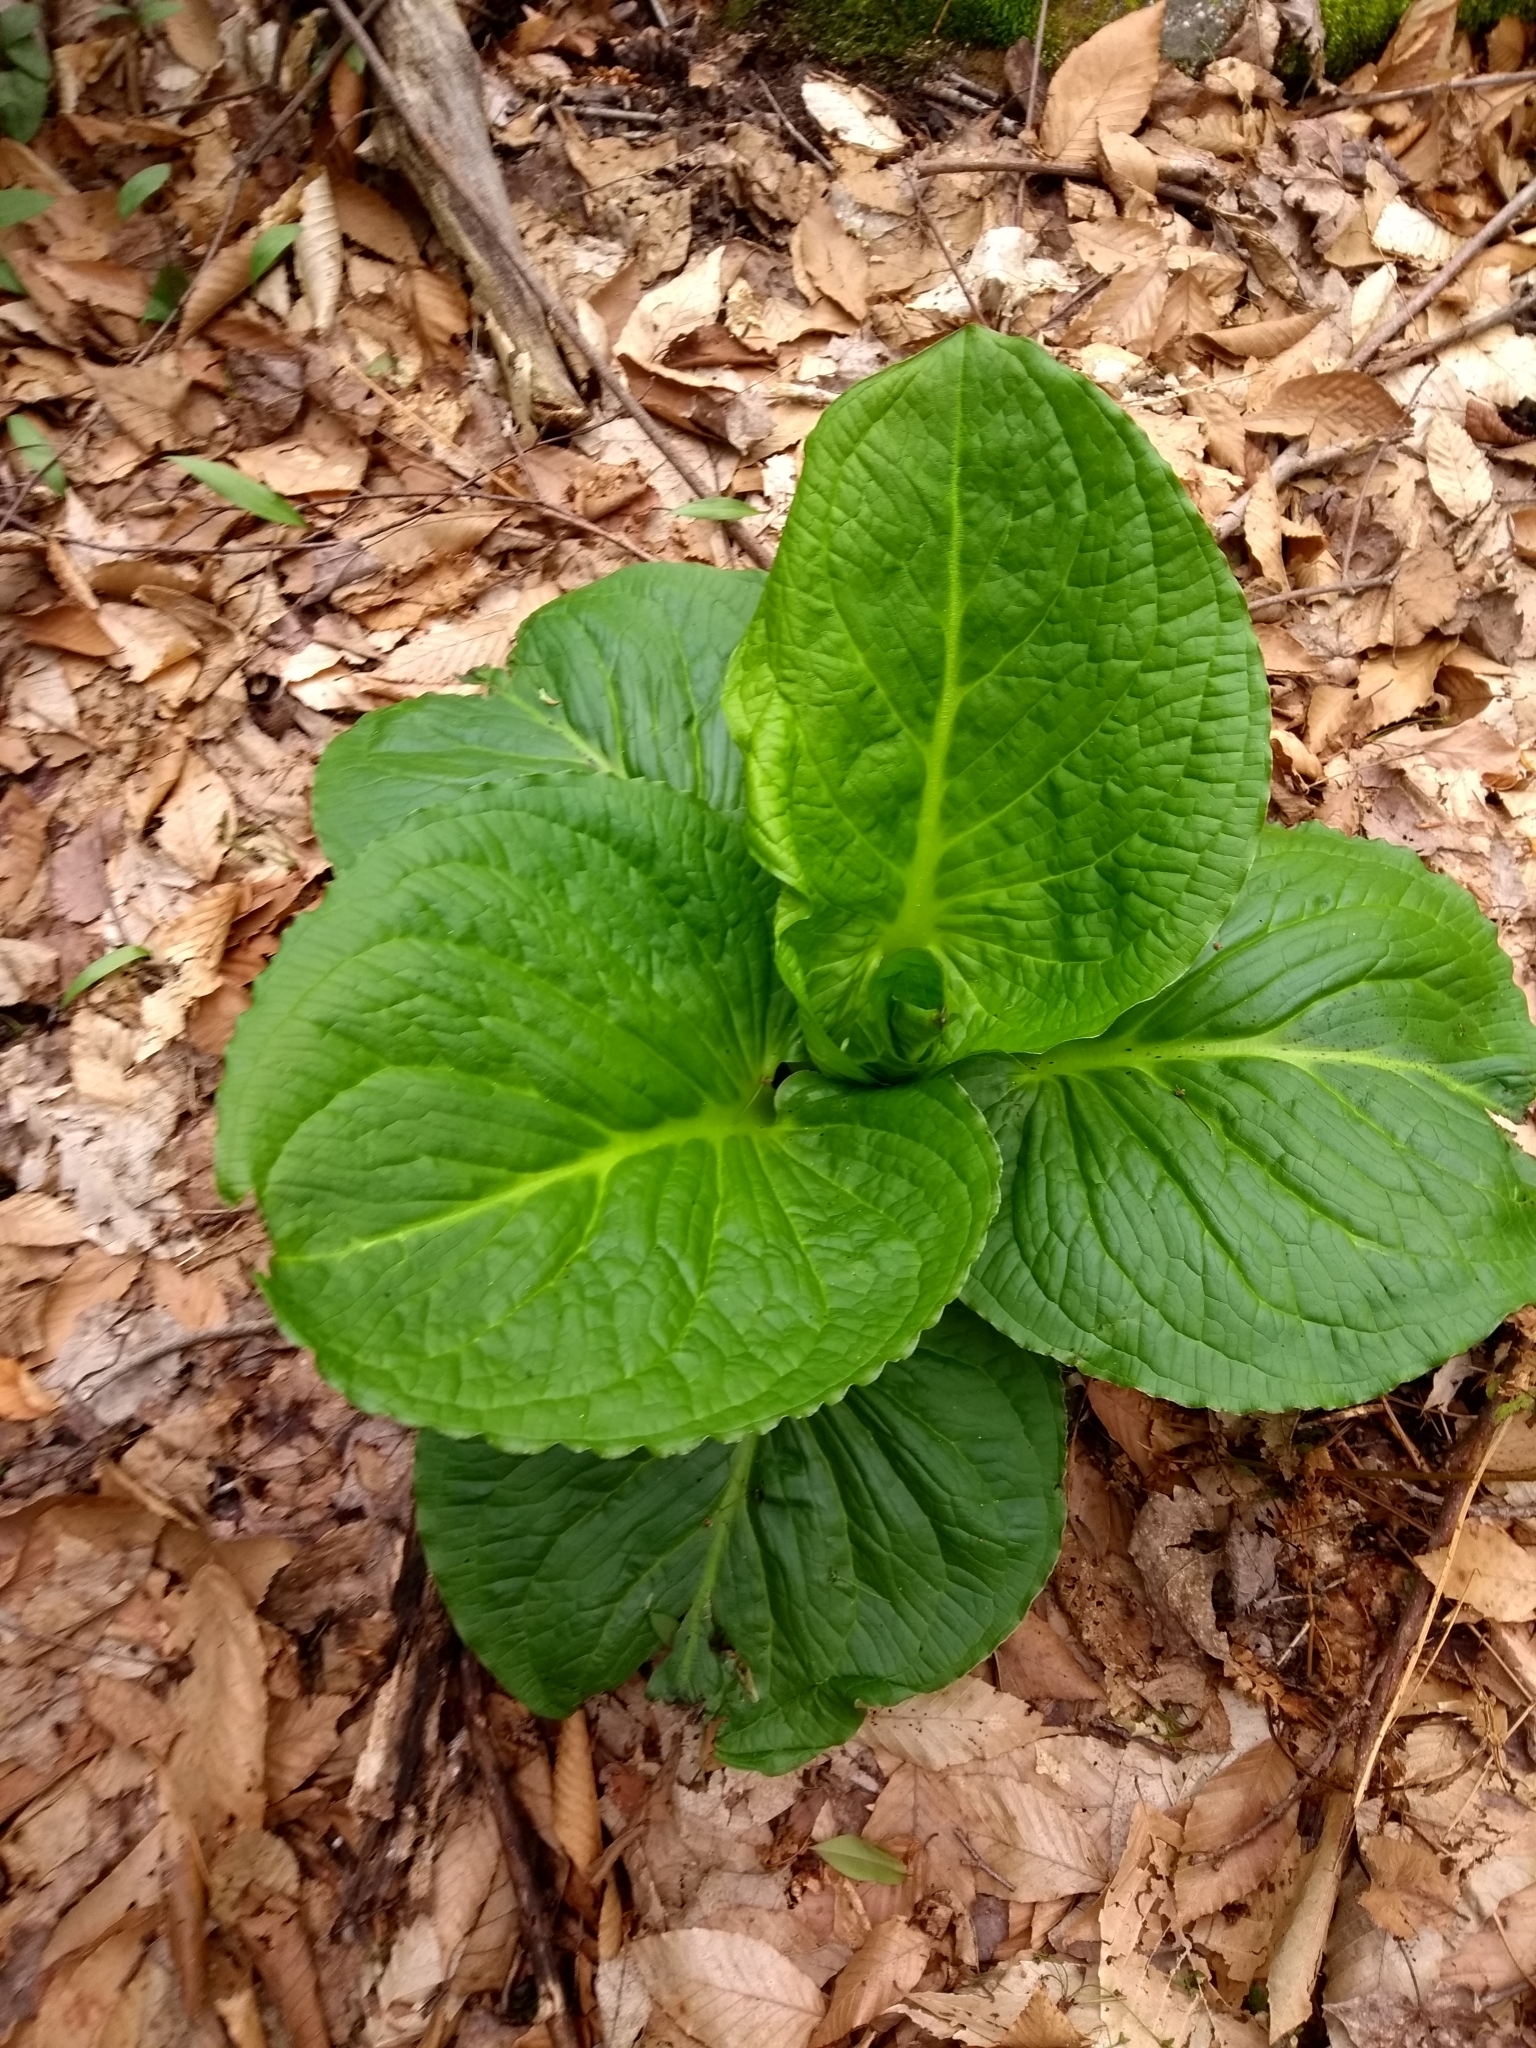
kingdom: Plantae
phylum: Tracheophyta
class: Liliopsida
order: Alismatales
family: Araceae
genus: Symplocarpus
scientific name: Symplocarpus foetidus
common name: Eastern skunk cabbage
